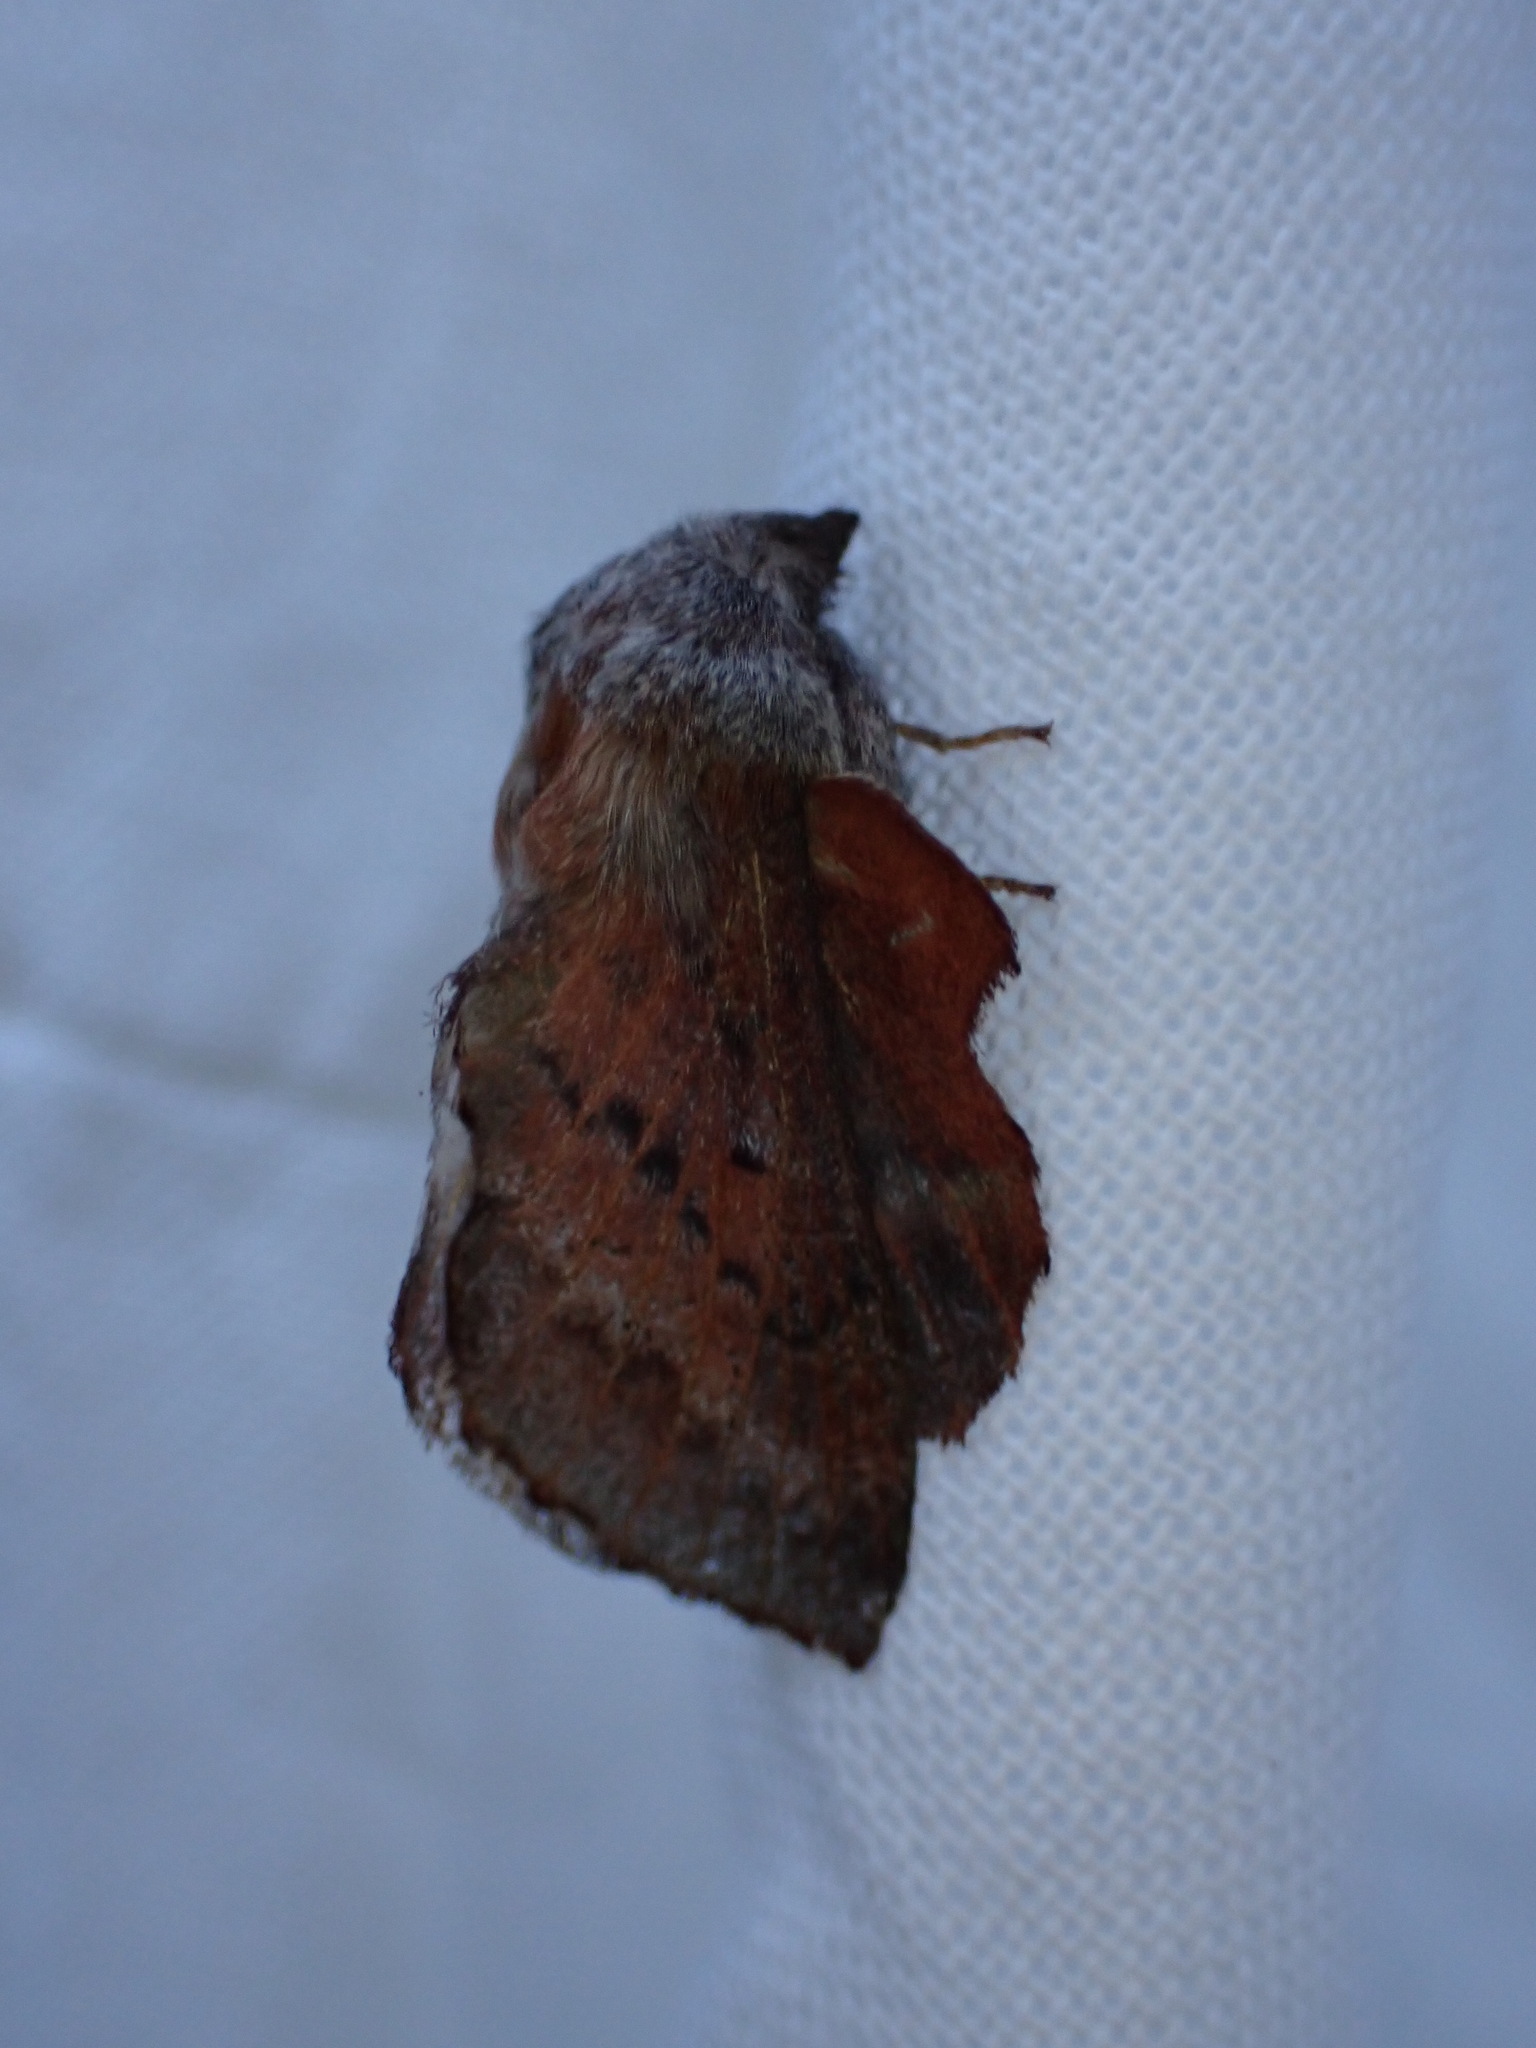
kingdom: Animalia
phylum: Arthropoda
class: Insecta
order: Lepidoptera
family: Lasiocampidae
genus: Phyllodesma
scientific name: Phyllodesma americana
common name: American lappet moth
